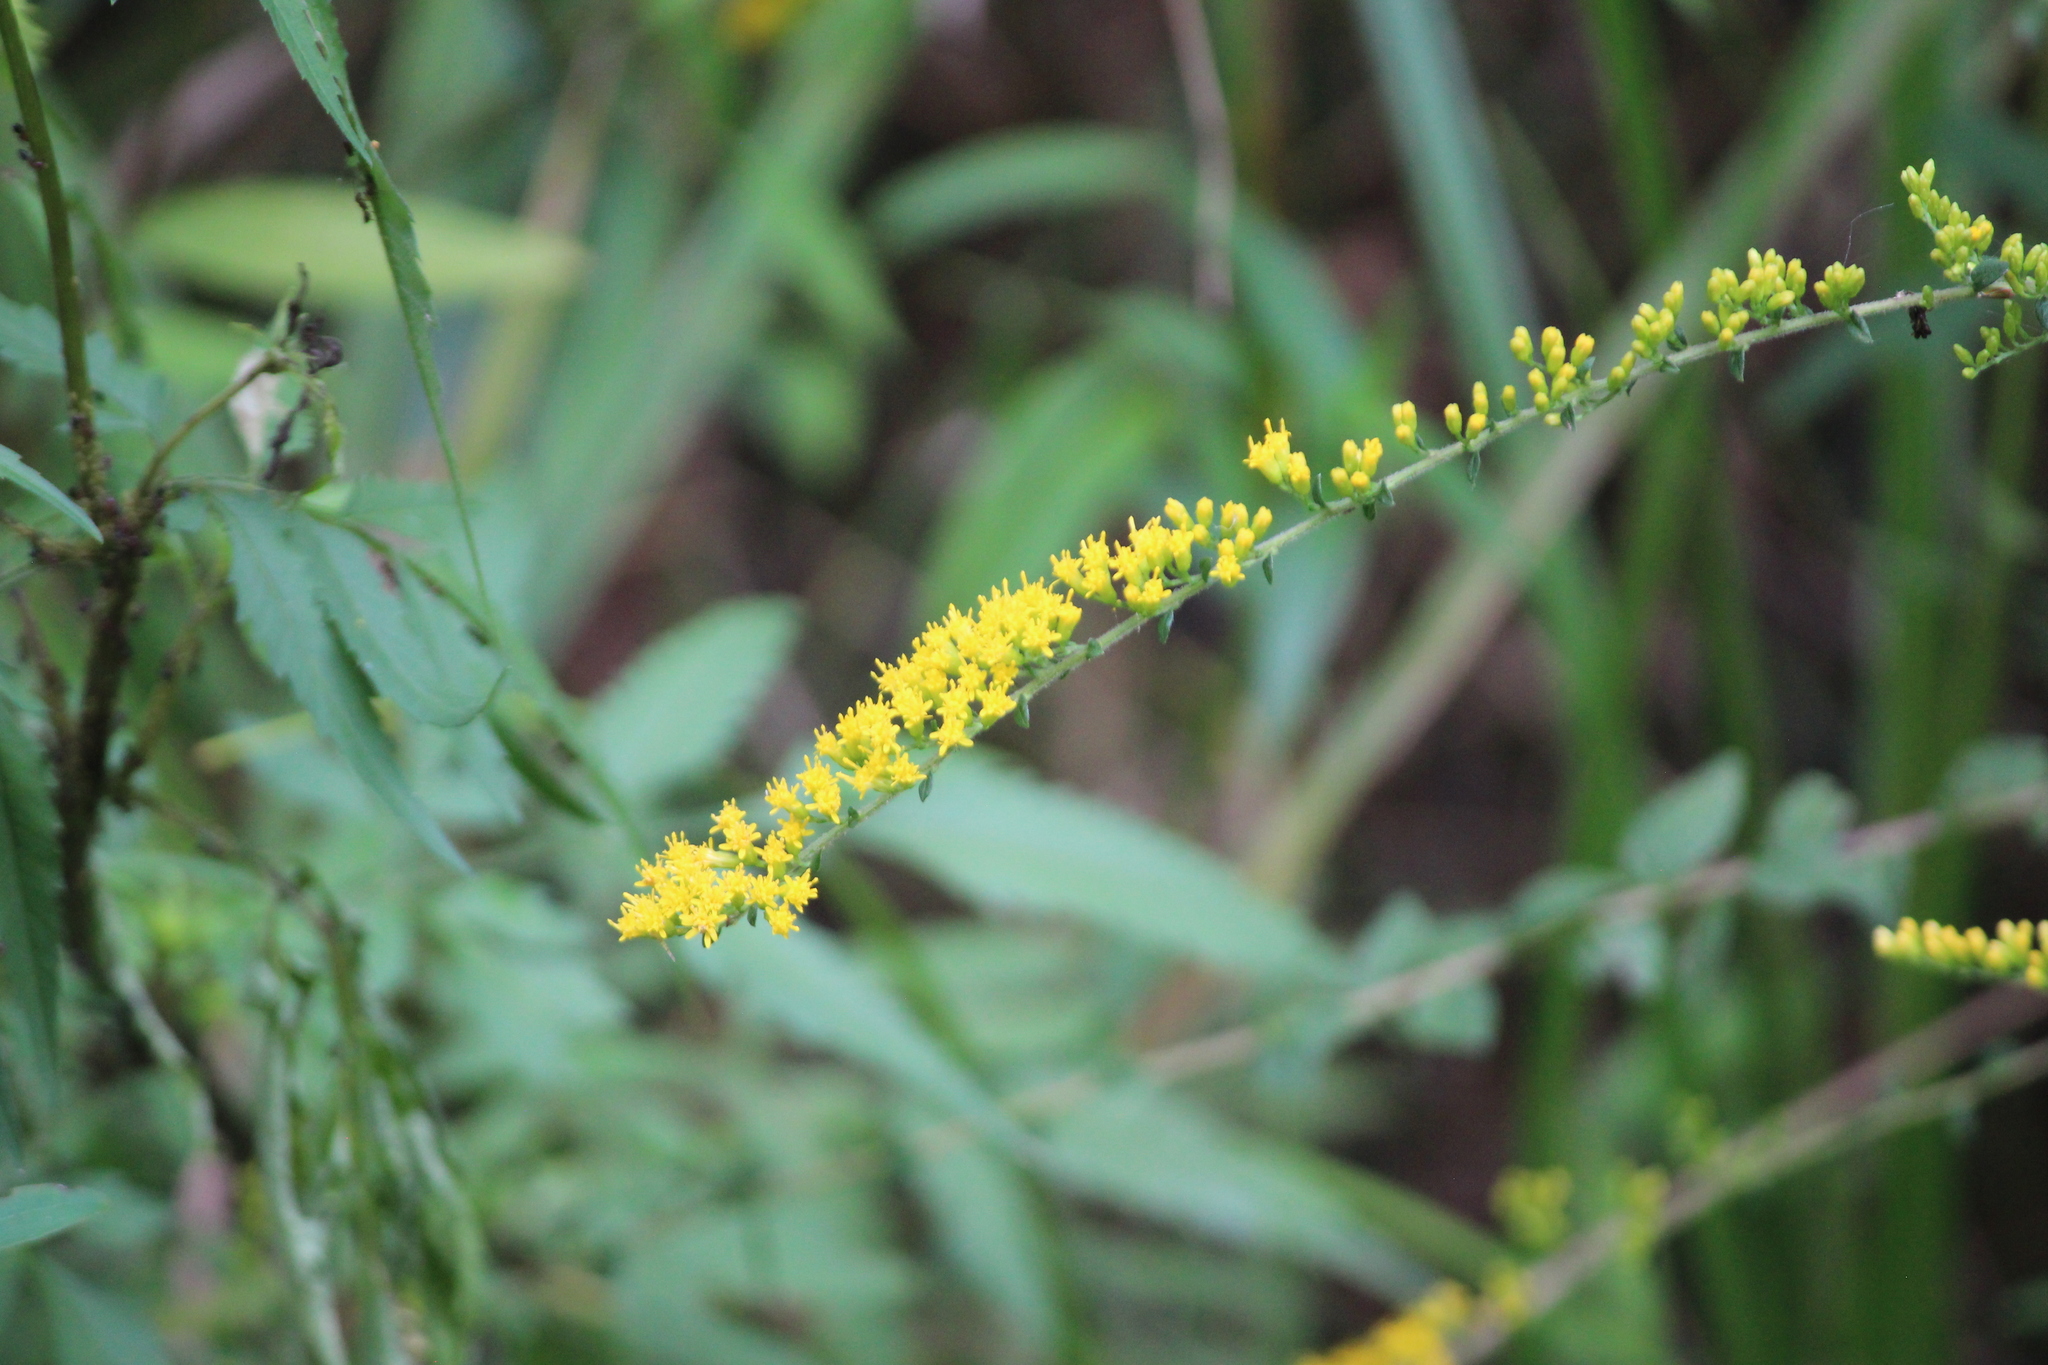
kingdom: Plantae
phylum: Tracheophyta
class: Magnoliopsida
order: Asterales
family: Asteraceae
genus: Solidago
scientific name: Solidago rugosa
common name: Rough-stemmed goldenrod
